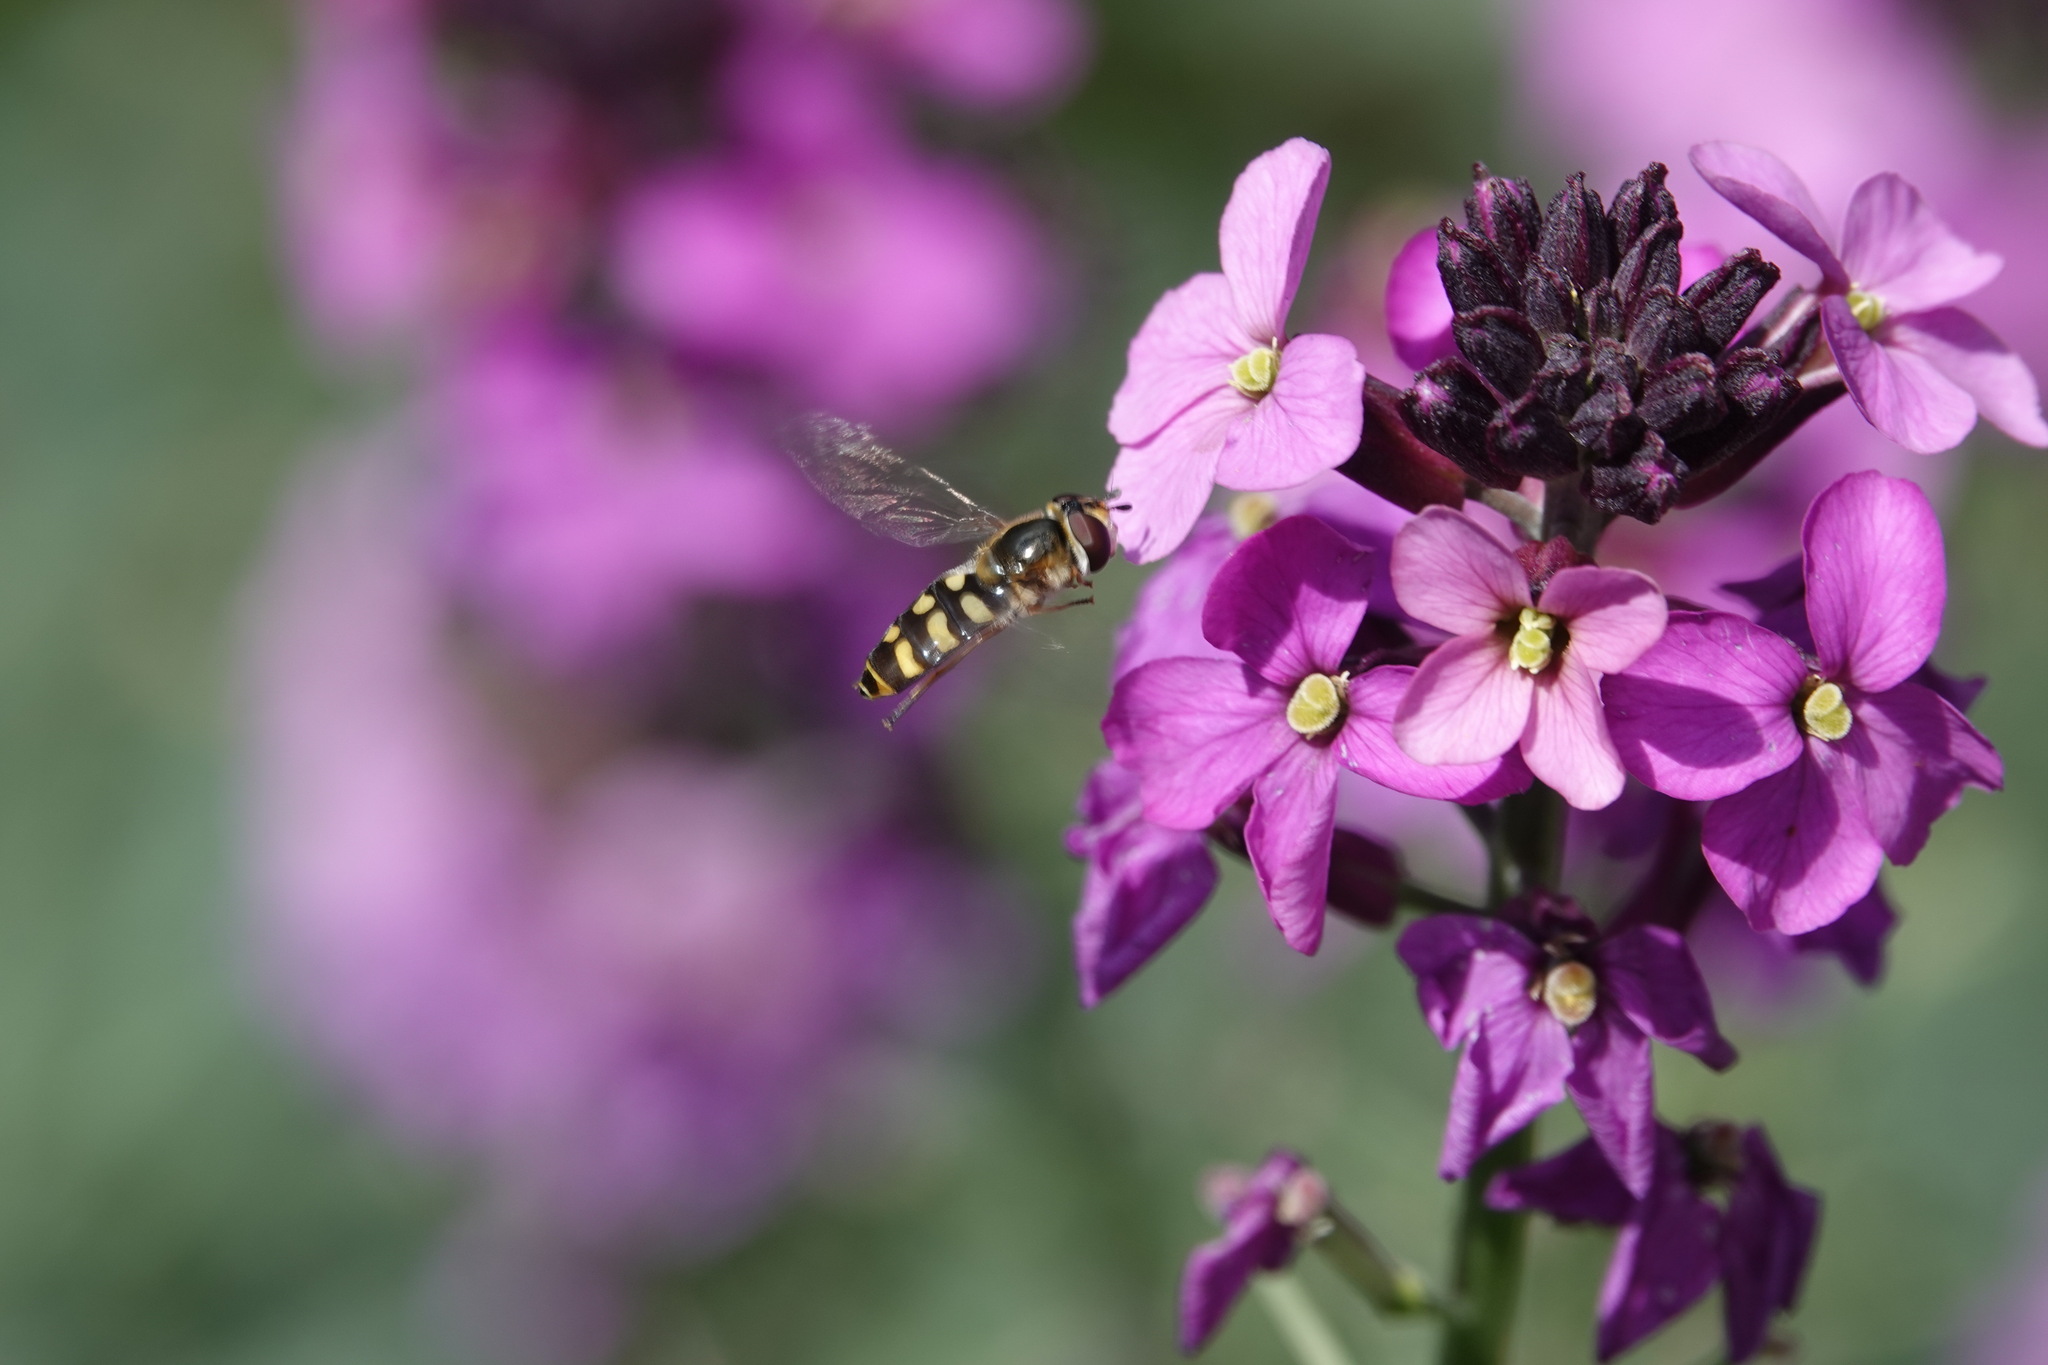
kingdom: Animalia
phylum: Arthropoda
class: Insecta
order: Diptera
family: Syrphidae
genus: Eupeodes
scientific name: Eupeodes
